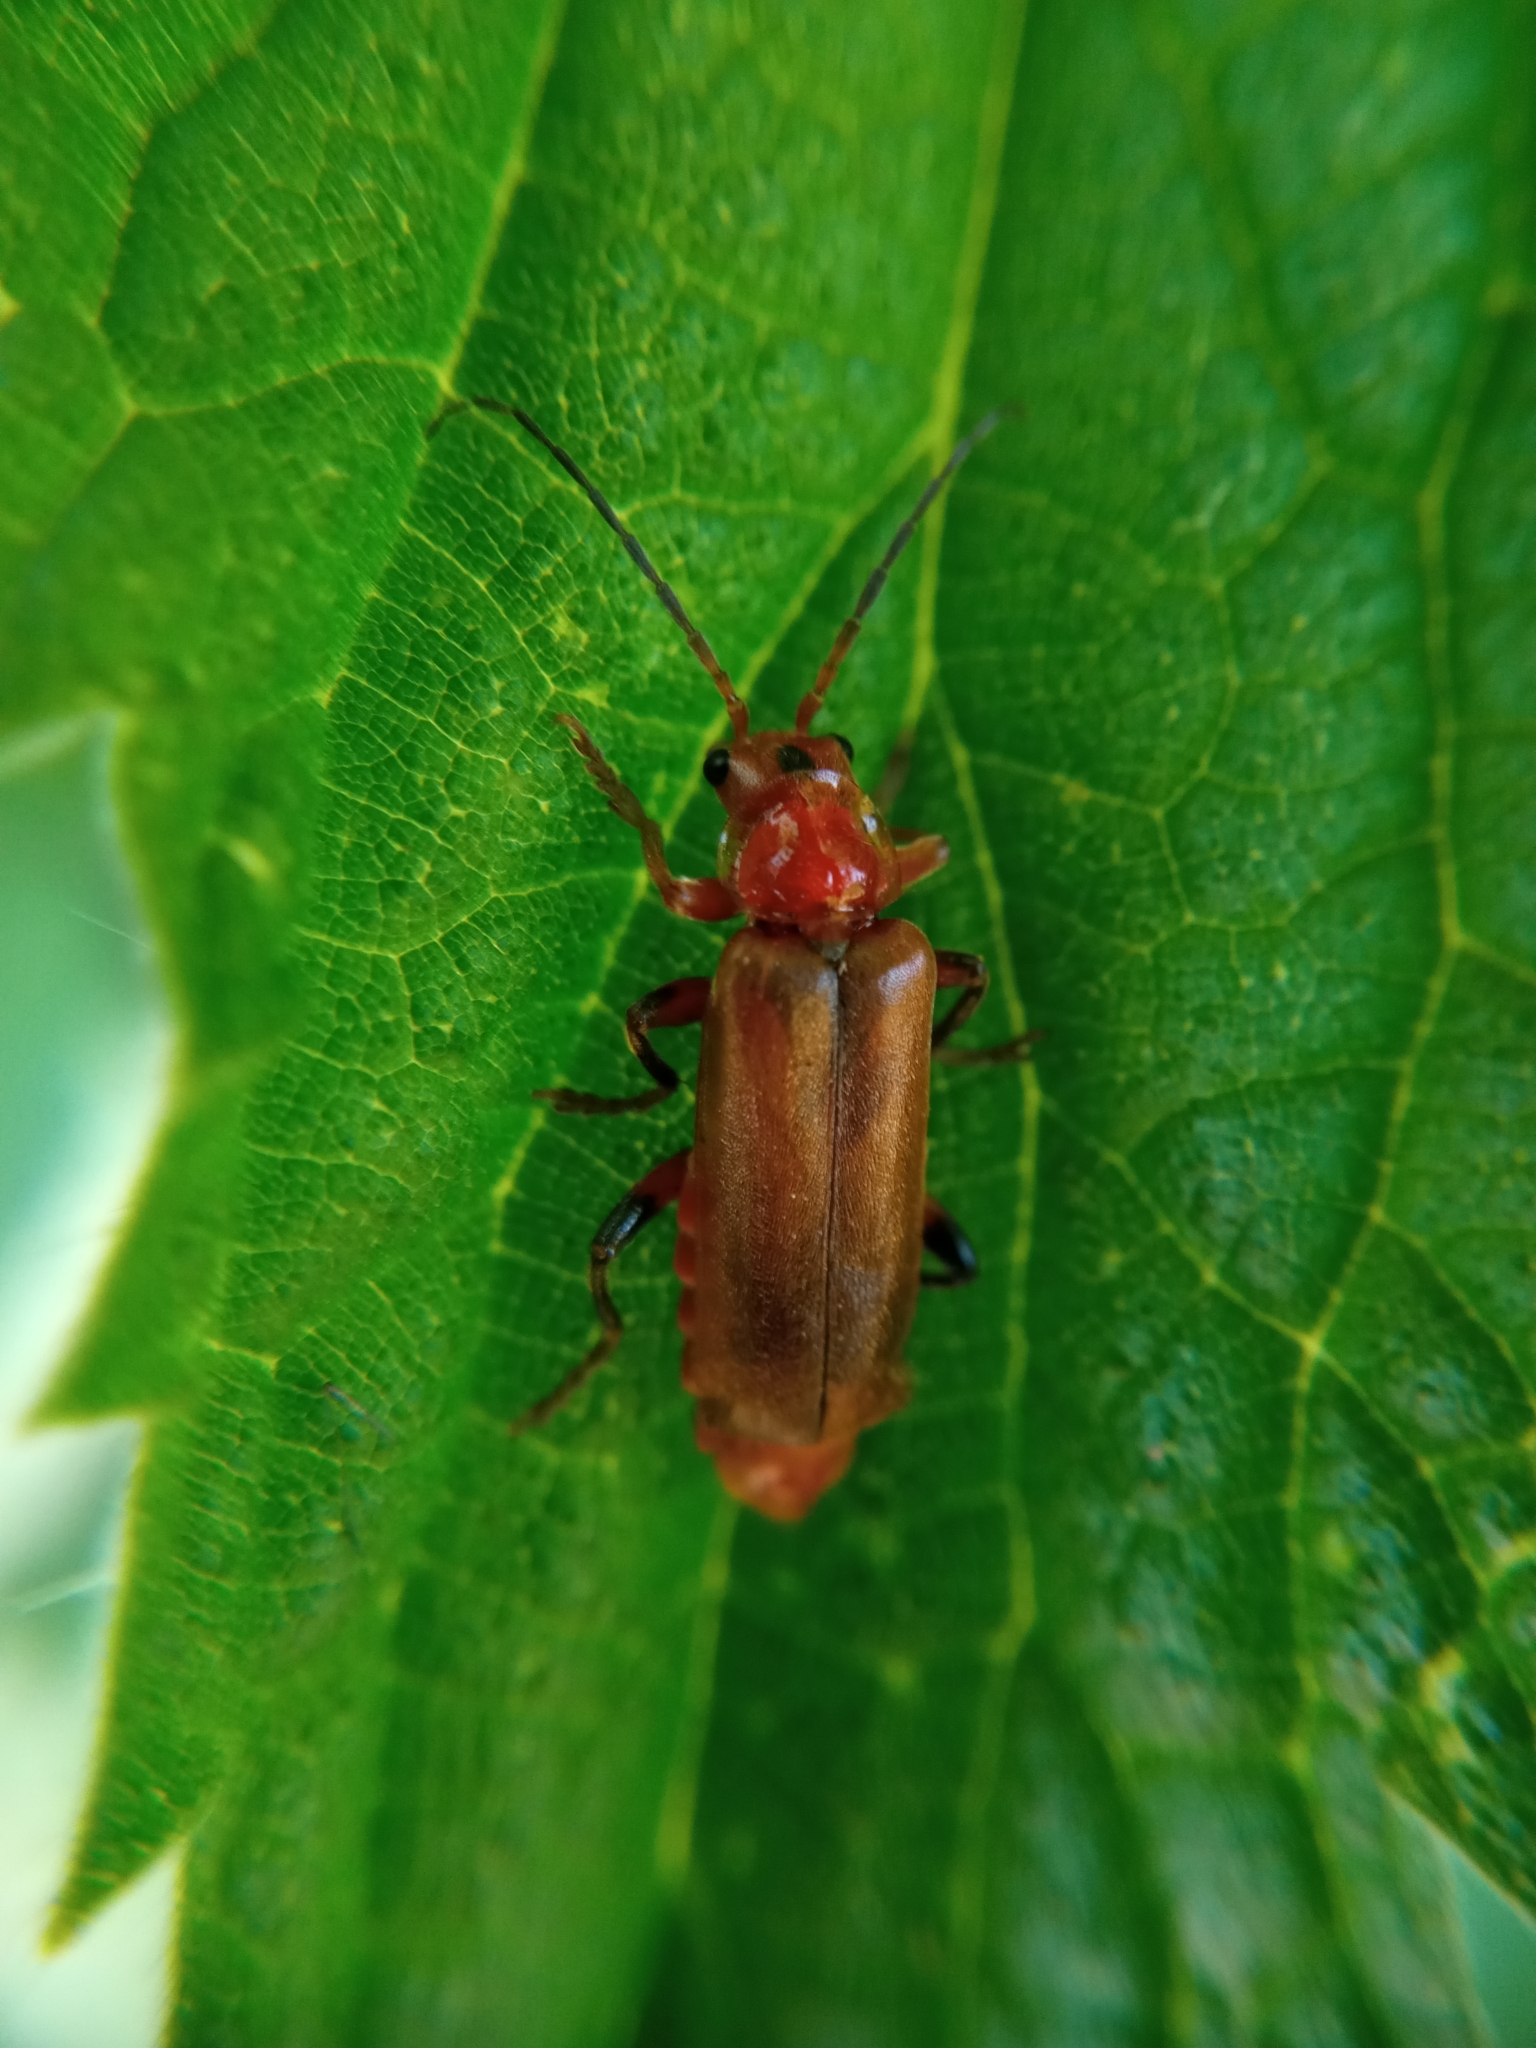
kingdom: Animalia
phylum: Arthropoda
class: Insecta
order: Coleoptera
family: Cantharidae
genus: Cantharis
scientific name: Cantharis livida
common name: Livid soldier beetle
